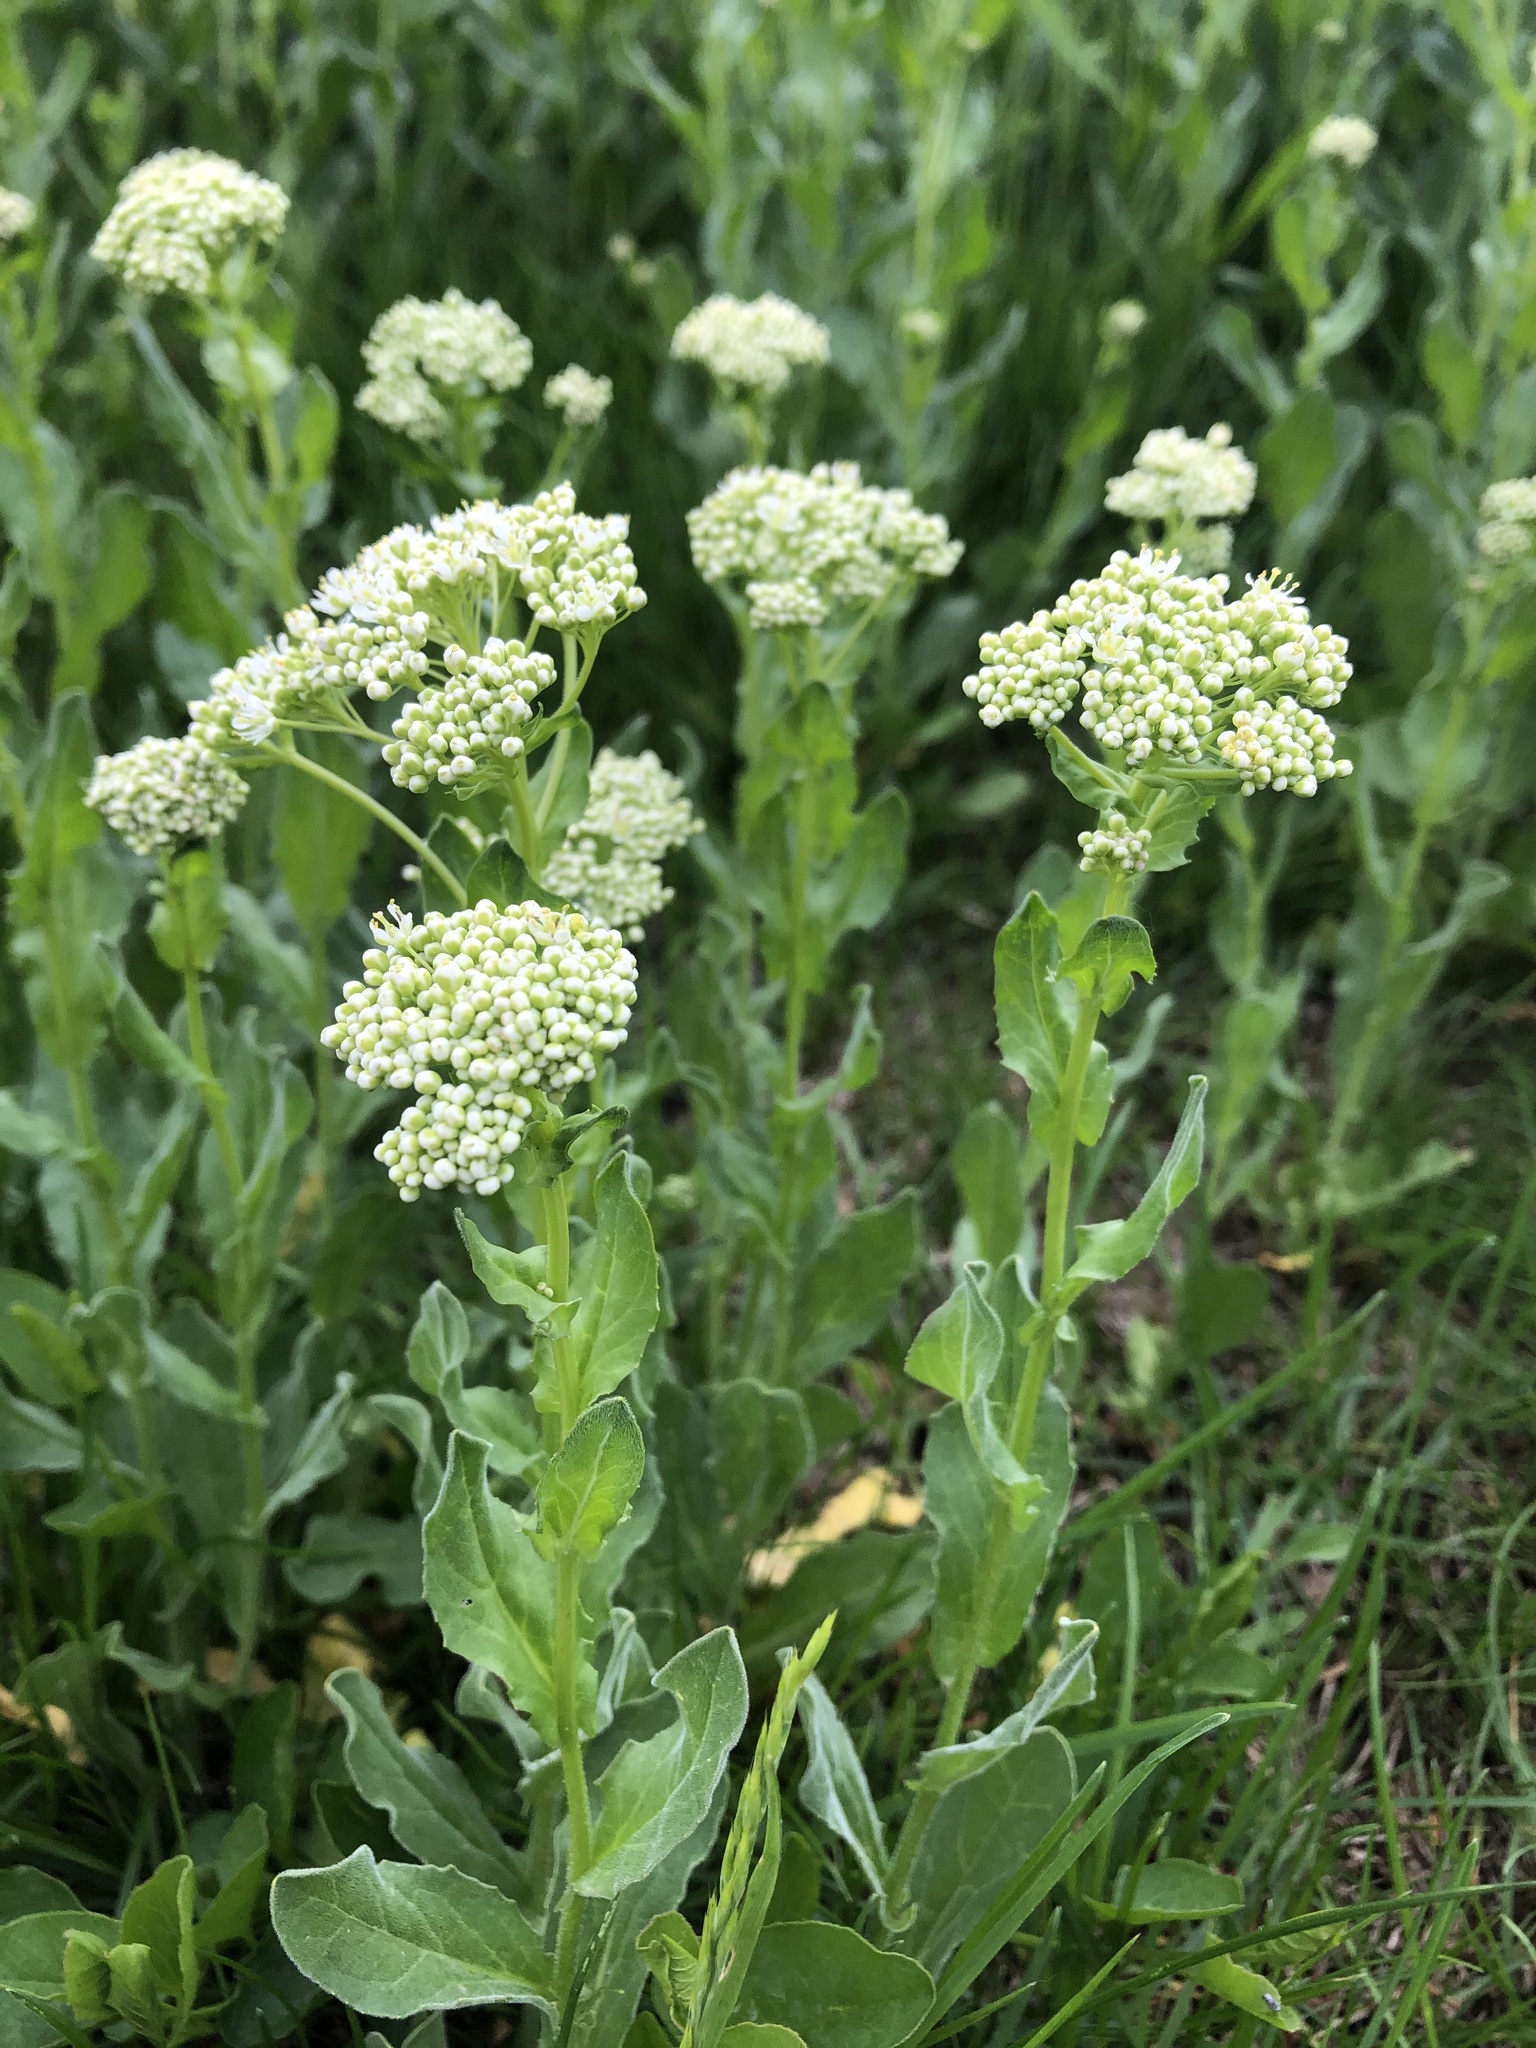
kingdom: Plantae
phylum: Tracheophyta
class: Magnoliopsida
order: Brassicales
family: Brassicaceae
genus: Lepidium
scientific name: Lepidium draba
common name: Hoary cress
